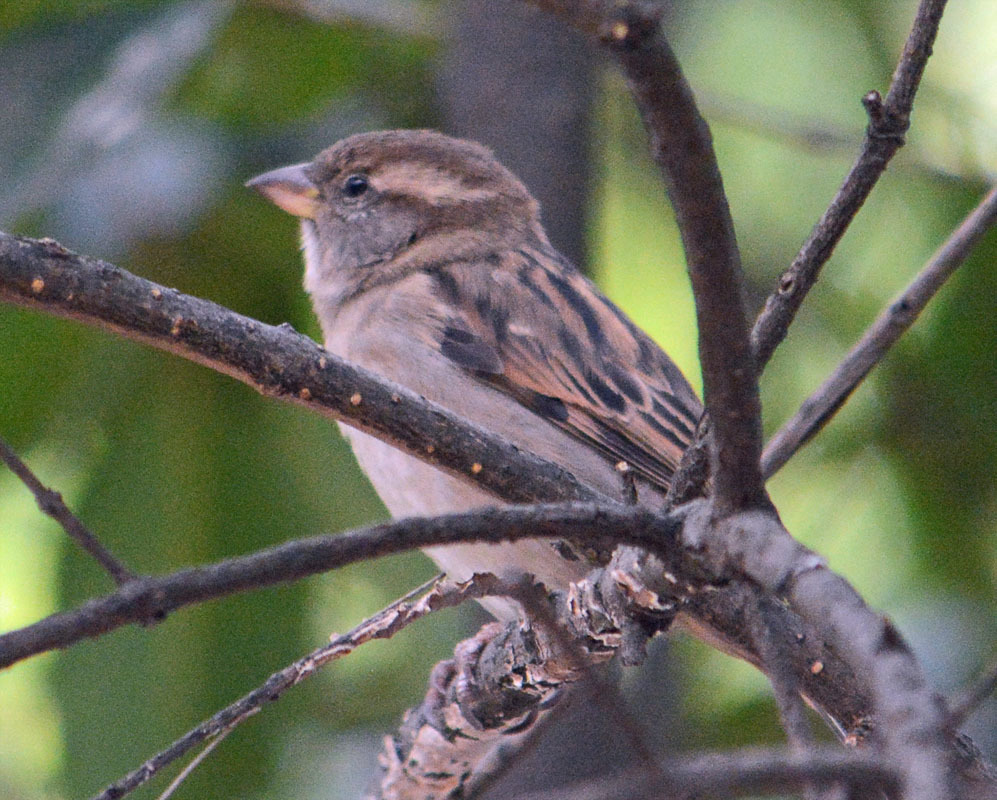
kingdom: Animalia
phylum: Chordata
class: Aves
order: Passeriformes
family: Passeridae
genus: Passer
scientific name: Passer domesticus
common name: House sparrow
